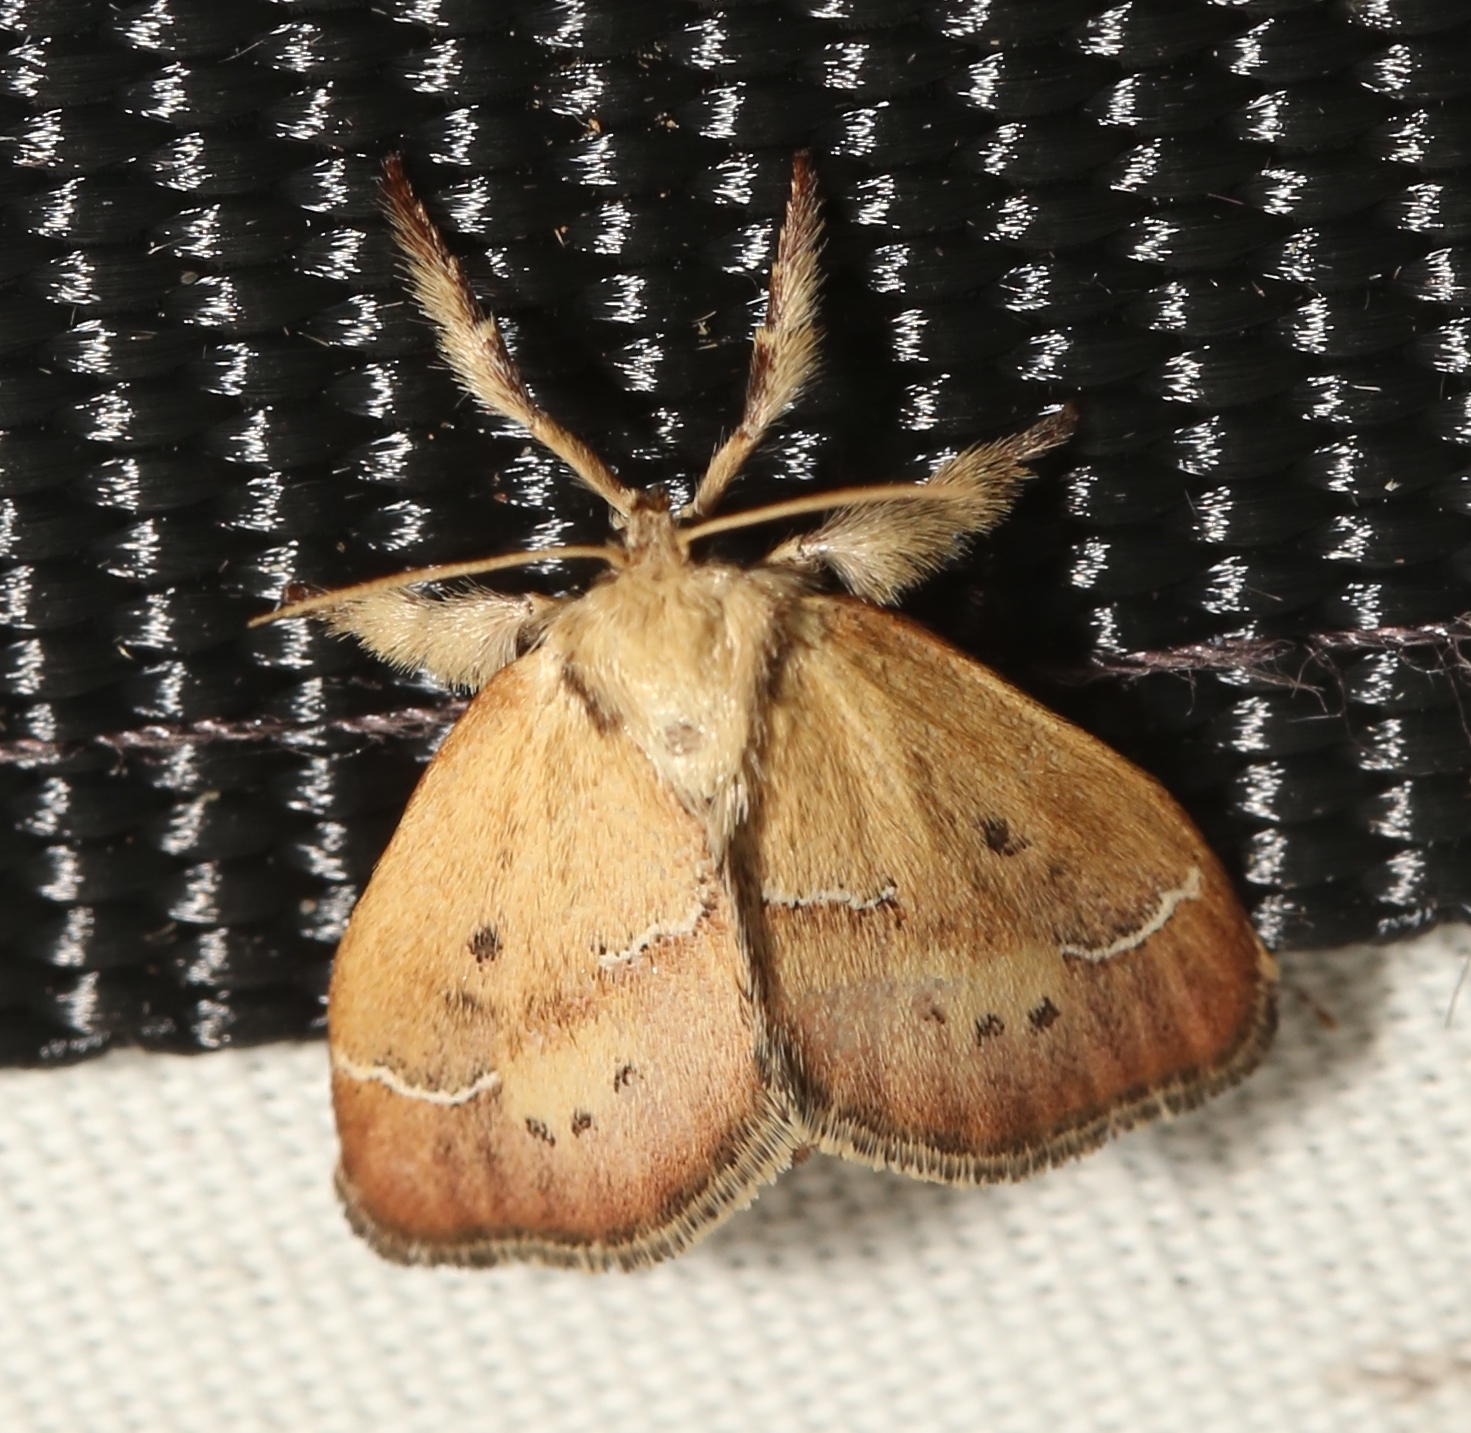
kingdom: Animalia
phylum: Arthropoda
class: Insecta
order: Lepidoptera
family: Limacodidae
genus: Adoneta
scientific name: Adoneta bicaudata
